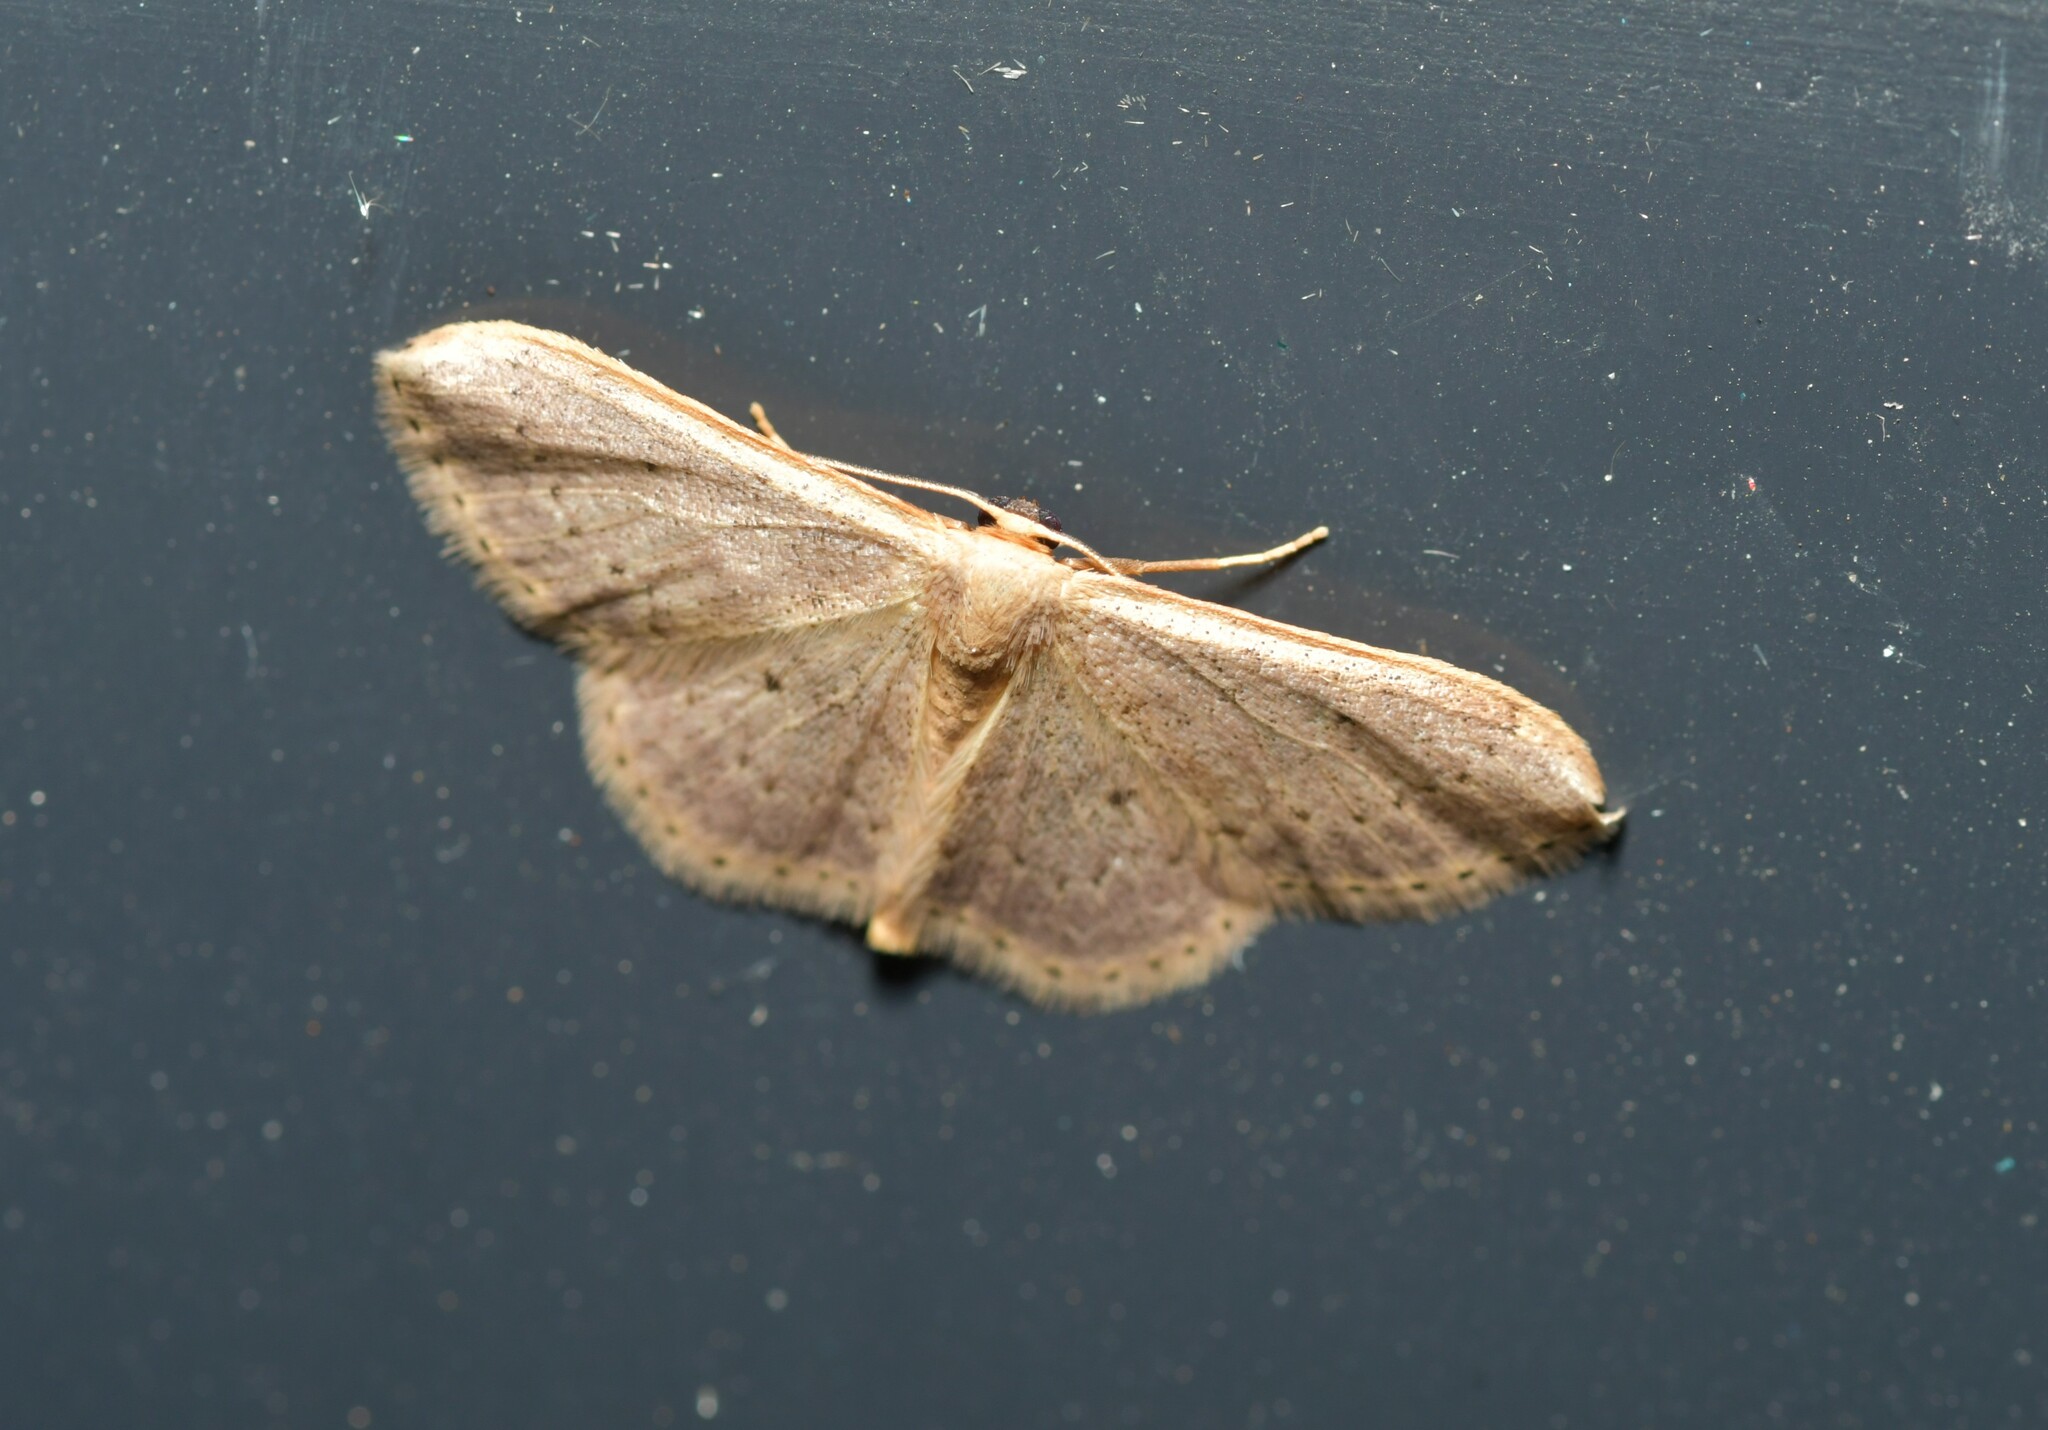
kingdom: Animalia
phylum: Arthropoda
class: Insecta
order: Lepidoptera
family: Geometridae
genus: Idaea
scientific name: Idaea eugeniata
